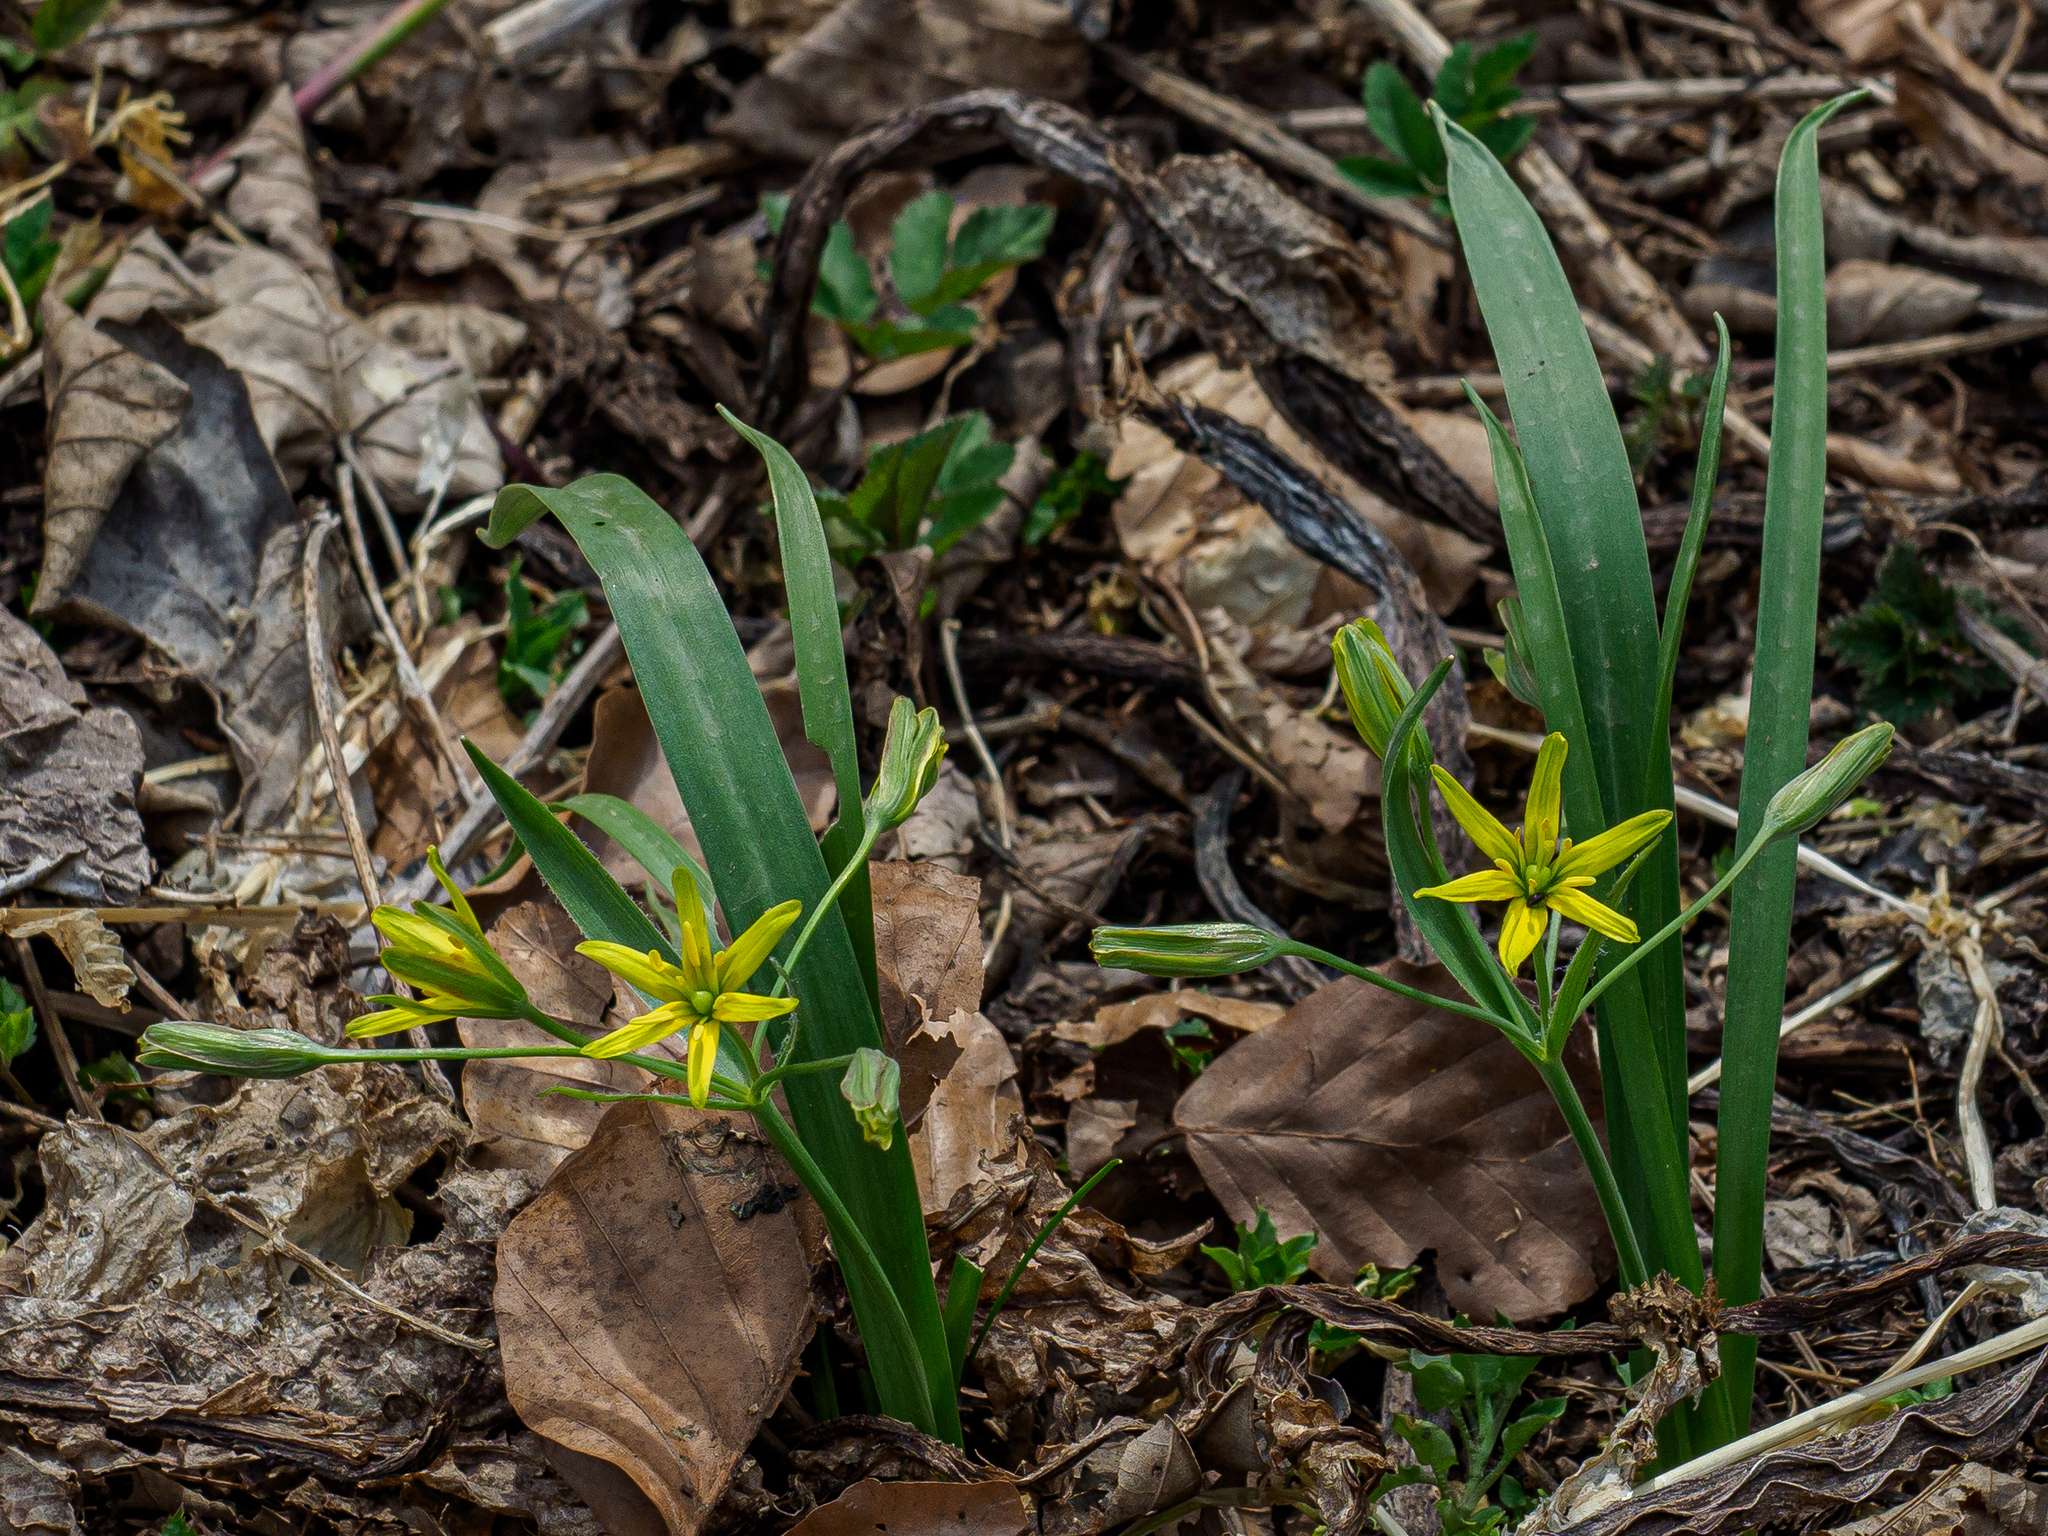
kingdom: Plantae
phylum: Tracheophyta
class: Liliopsida
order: Liliales
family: Liliaceae
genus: Gagea
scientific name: Gagea lutea
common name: Yellow star-of-bethlehem
